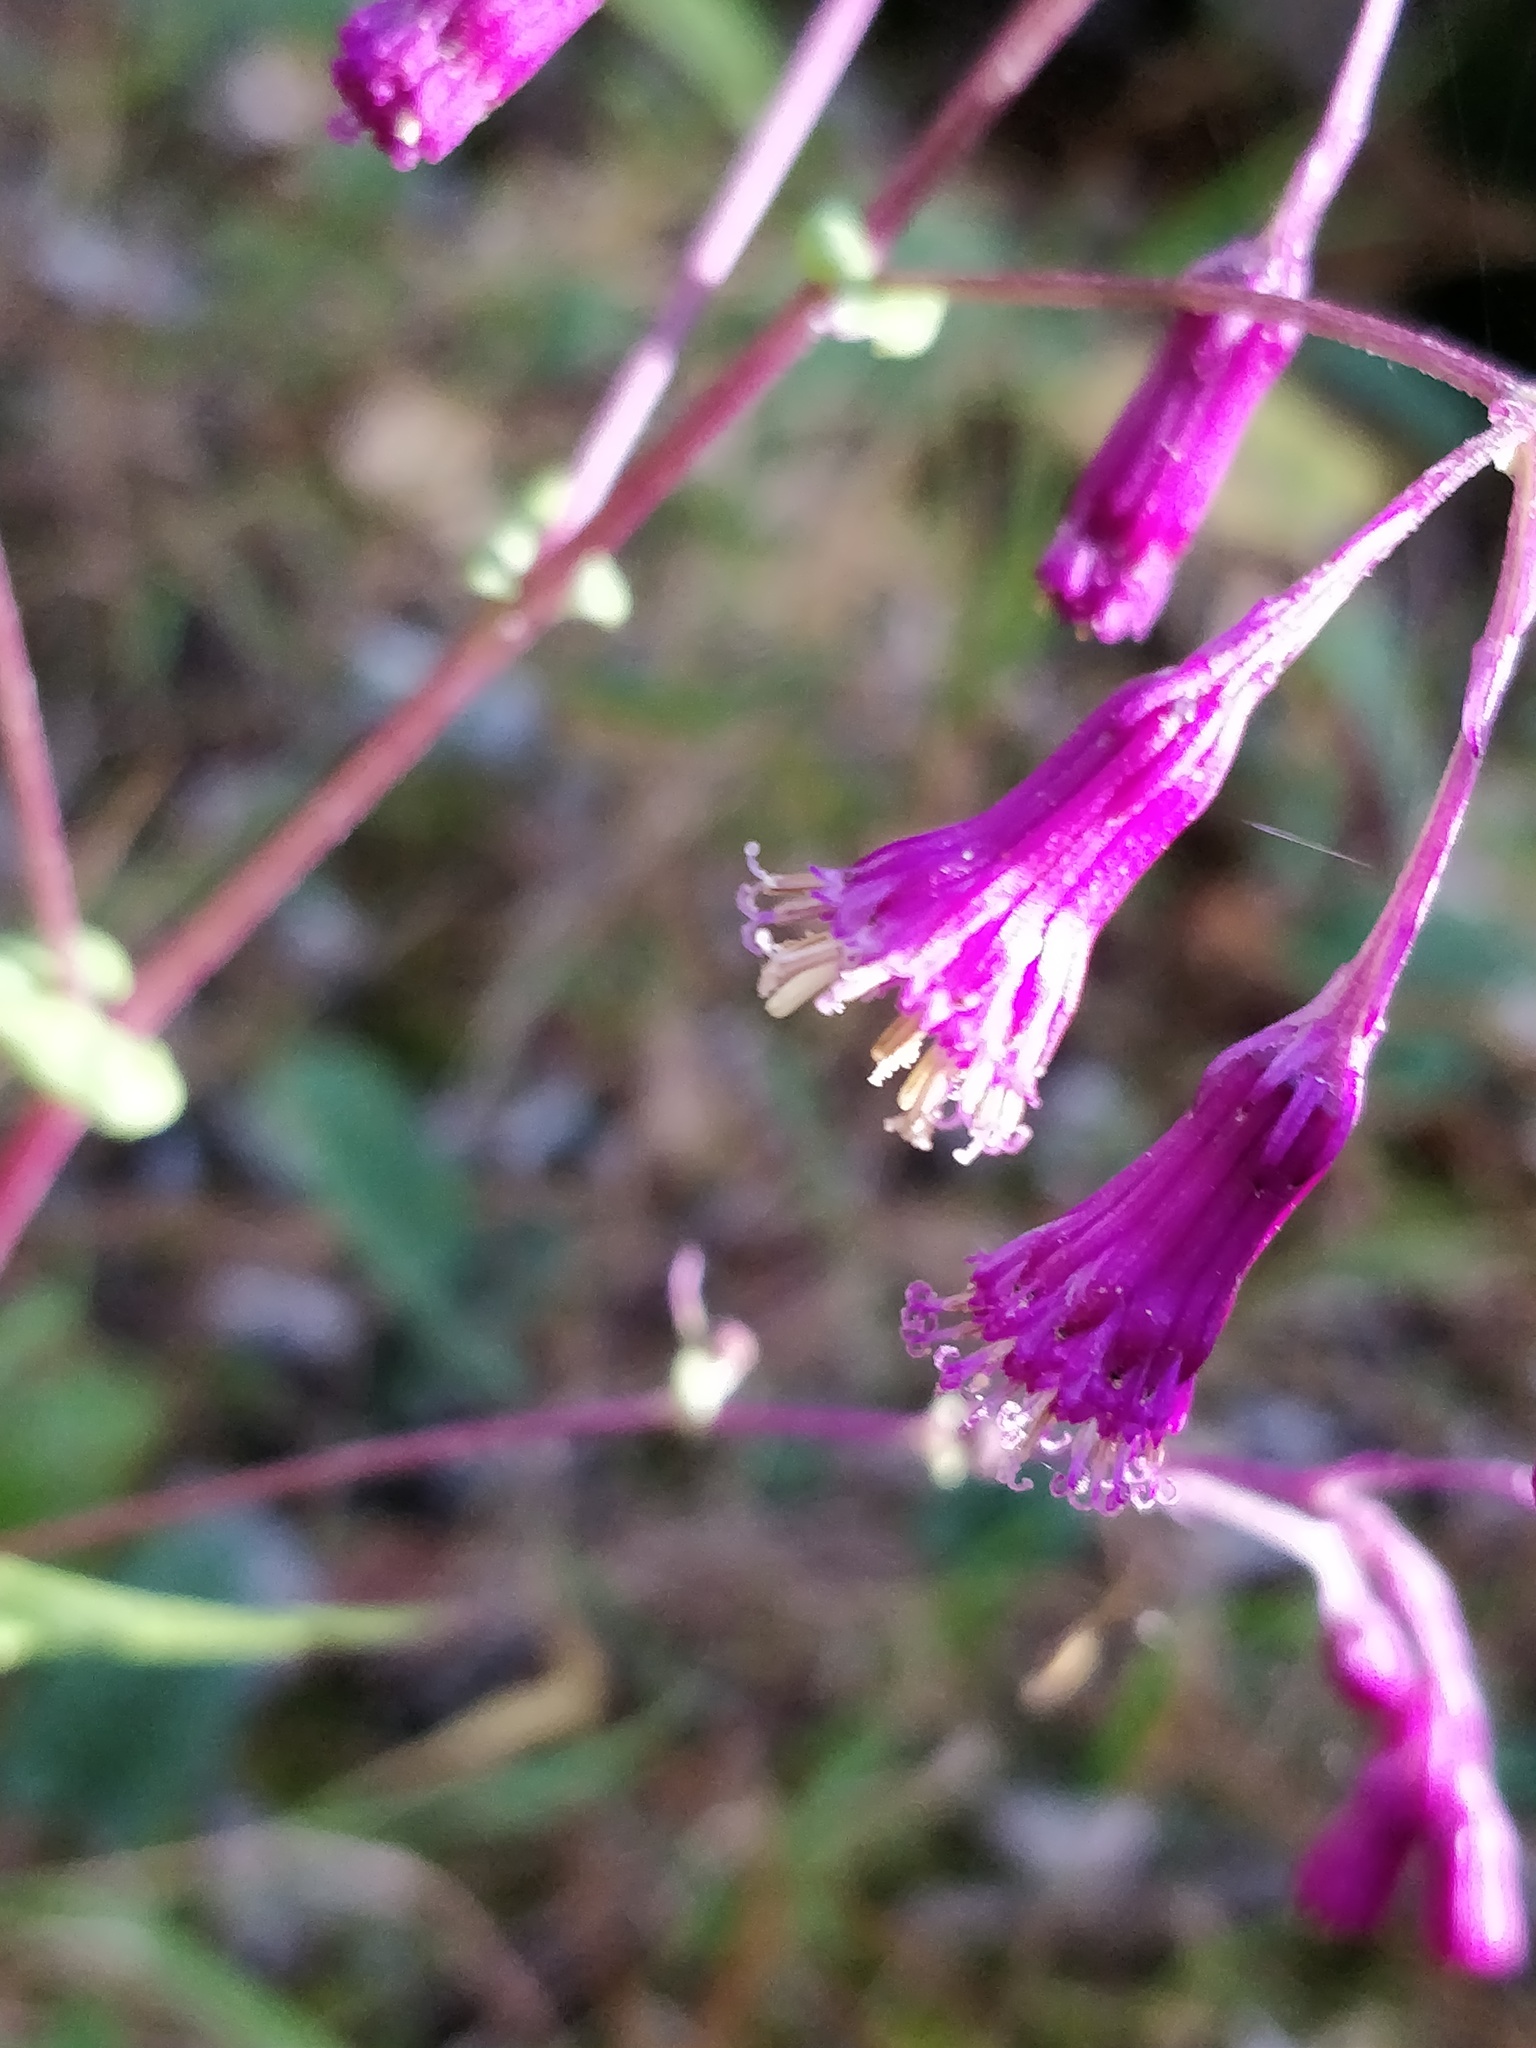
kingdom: Plantae
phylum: Tracheophyta
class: Magnoliopsida
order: Asterales
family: Asteraceae
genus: Senecio
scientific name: Senecio callosus
